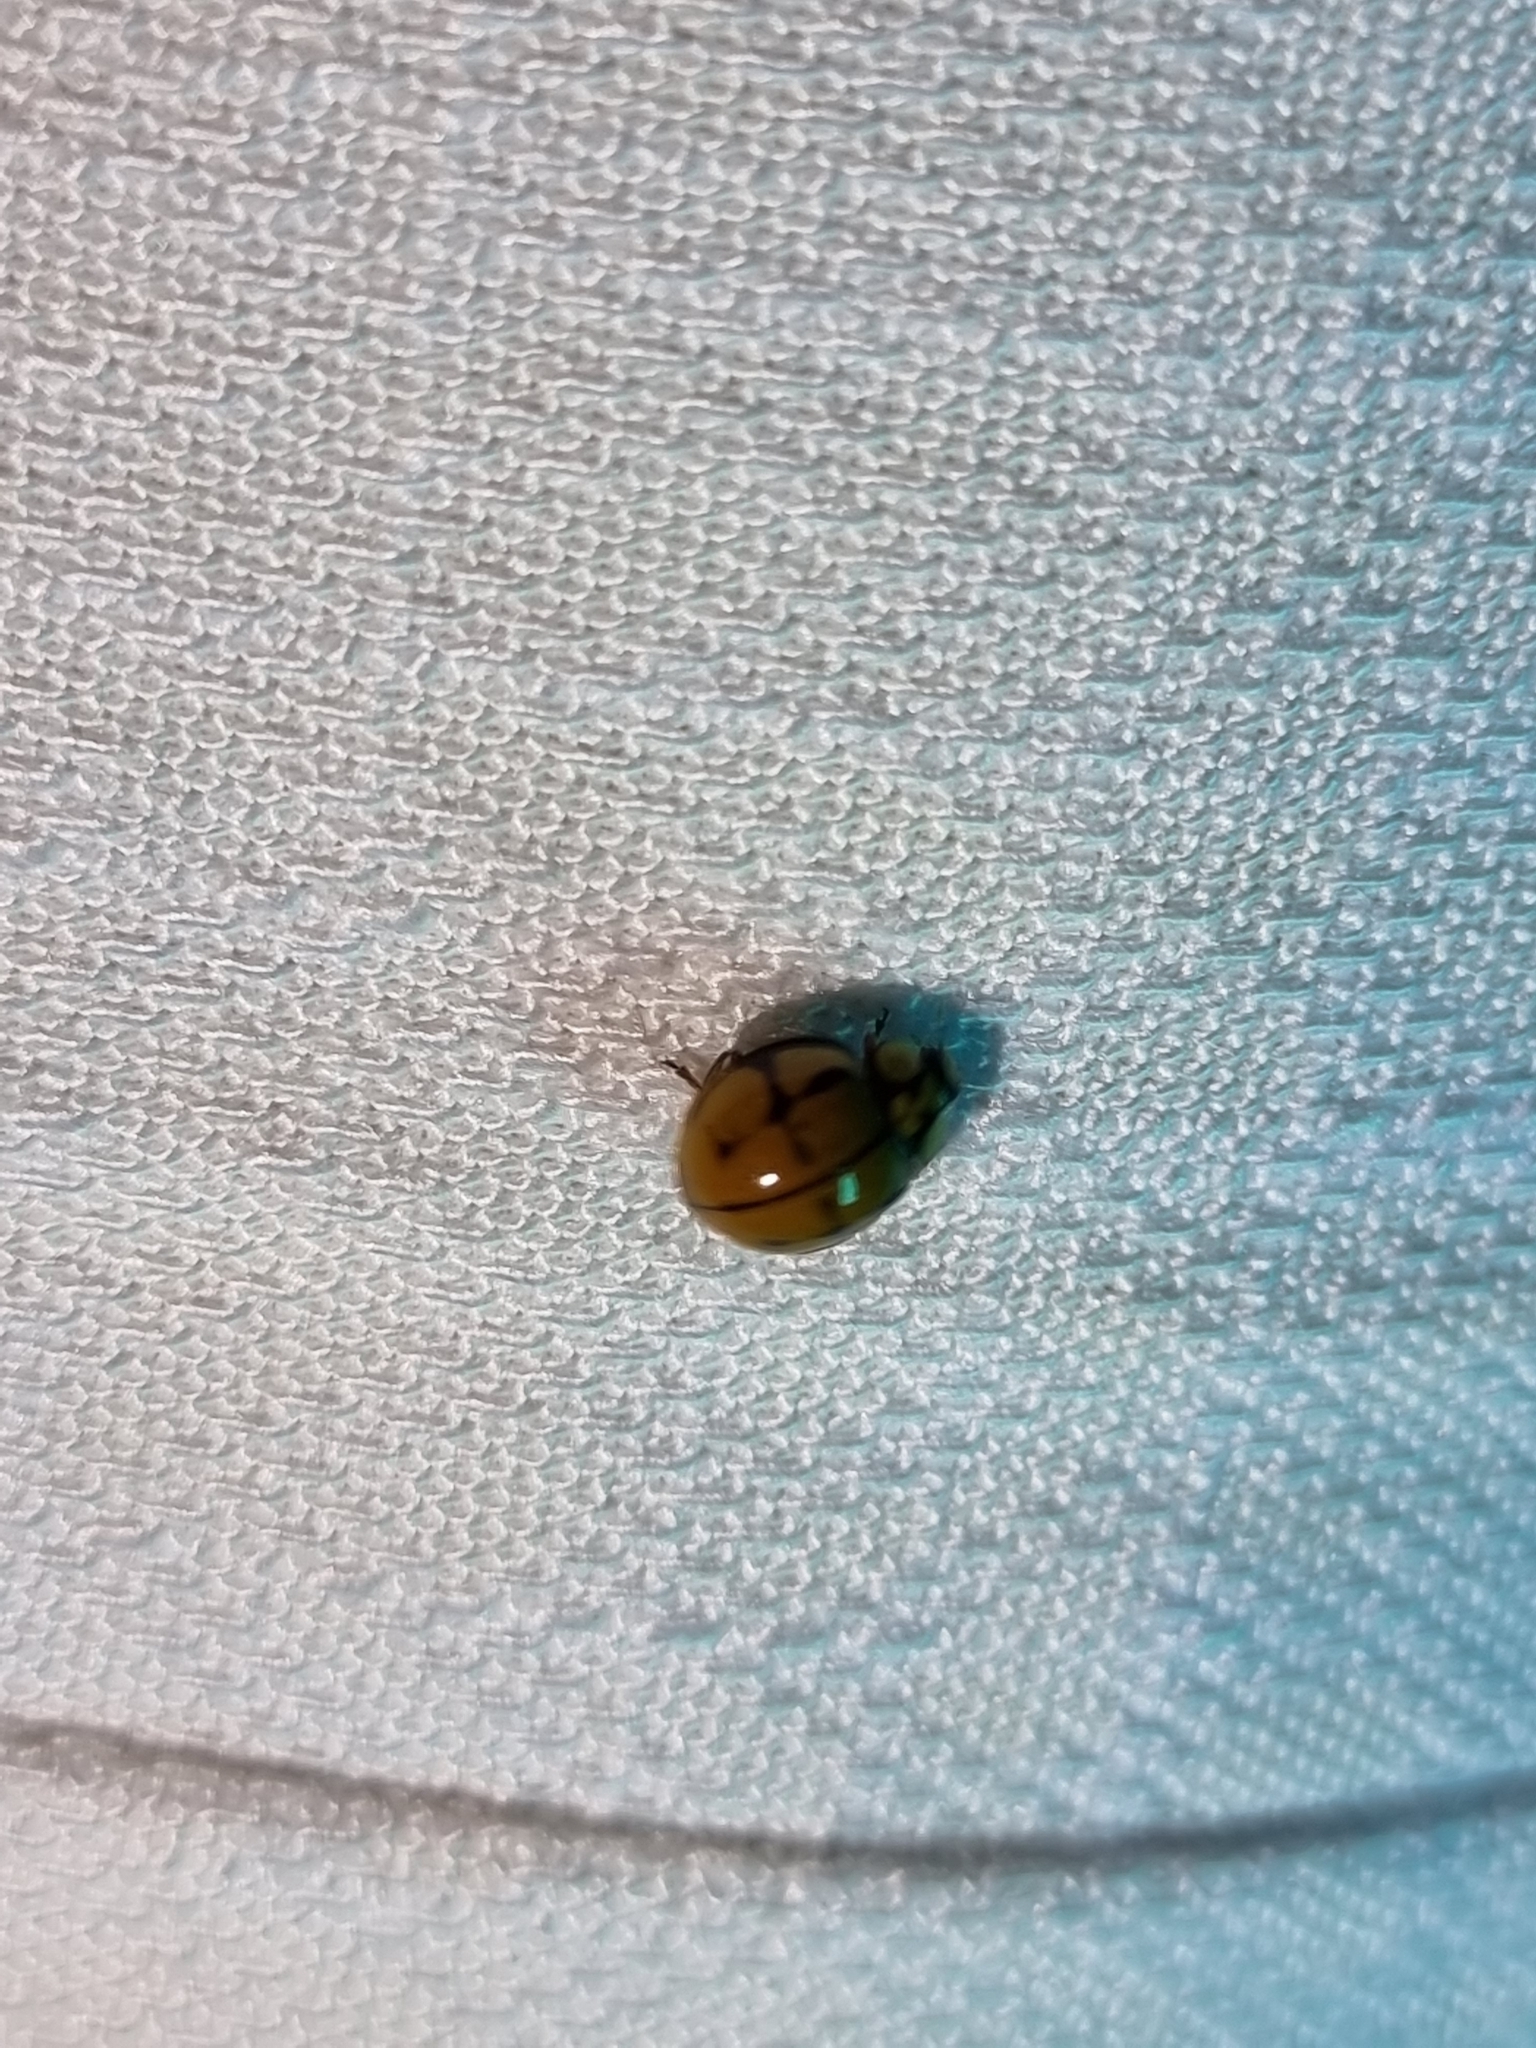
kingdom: Animalia
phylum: Arthropoda
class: Insecta
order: Coleoptera
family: Coccinellidae
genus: Harmonia
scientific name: Harmonia
